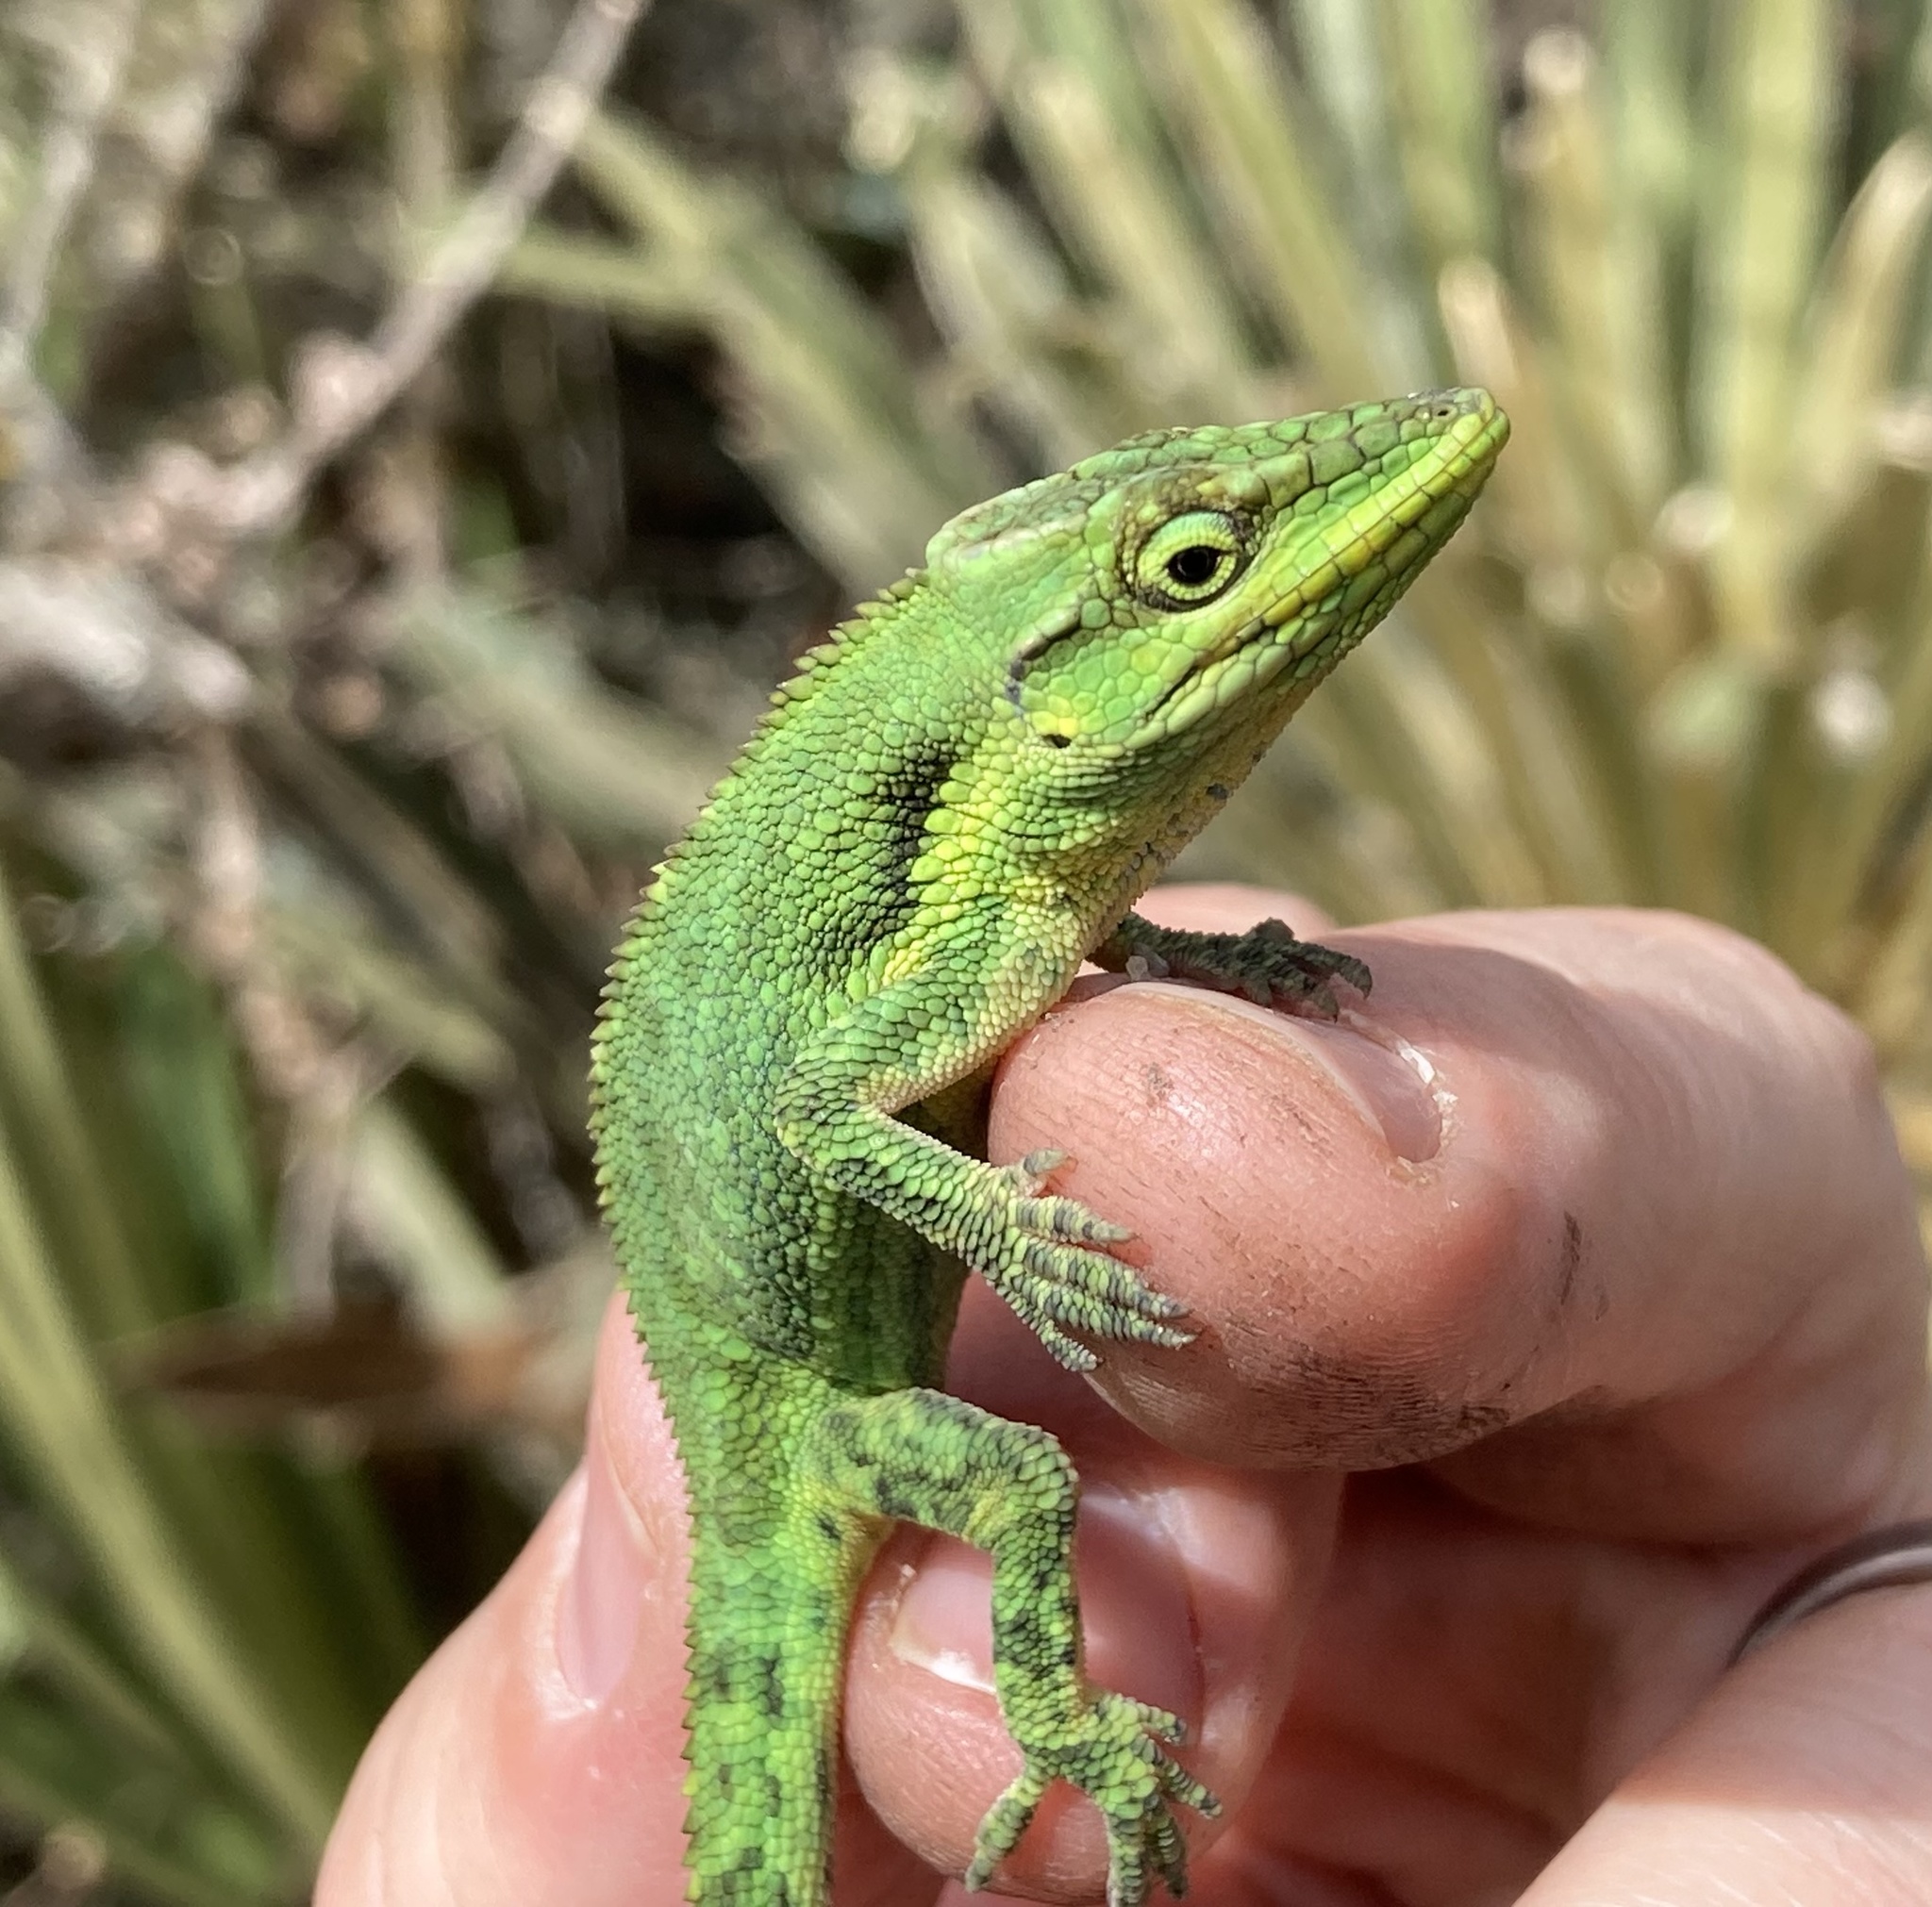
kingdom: Animalia
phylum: Chordata
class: Squamata
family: Dactyloidae
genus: Anolis
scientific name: Anolis heterodermus
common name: Flat andes anole
